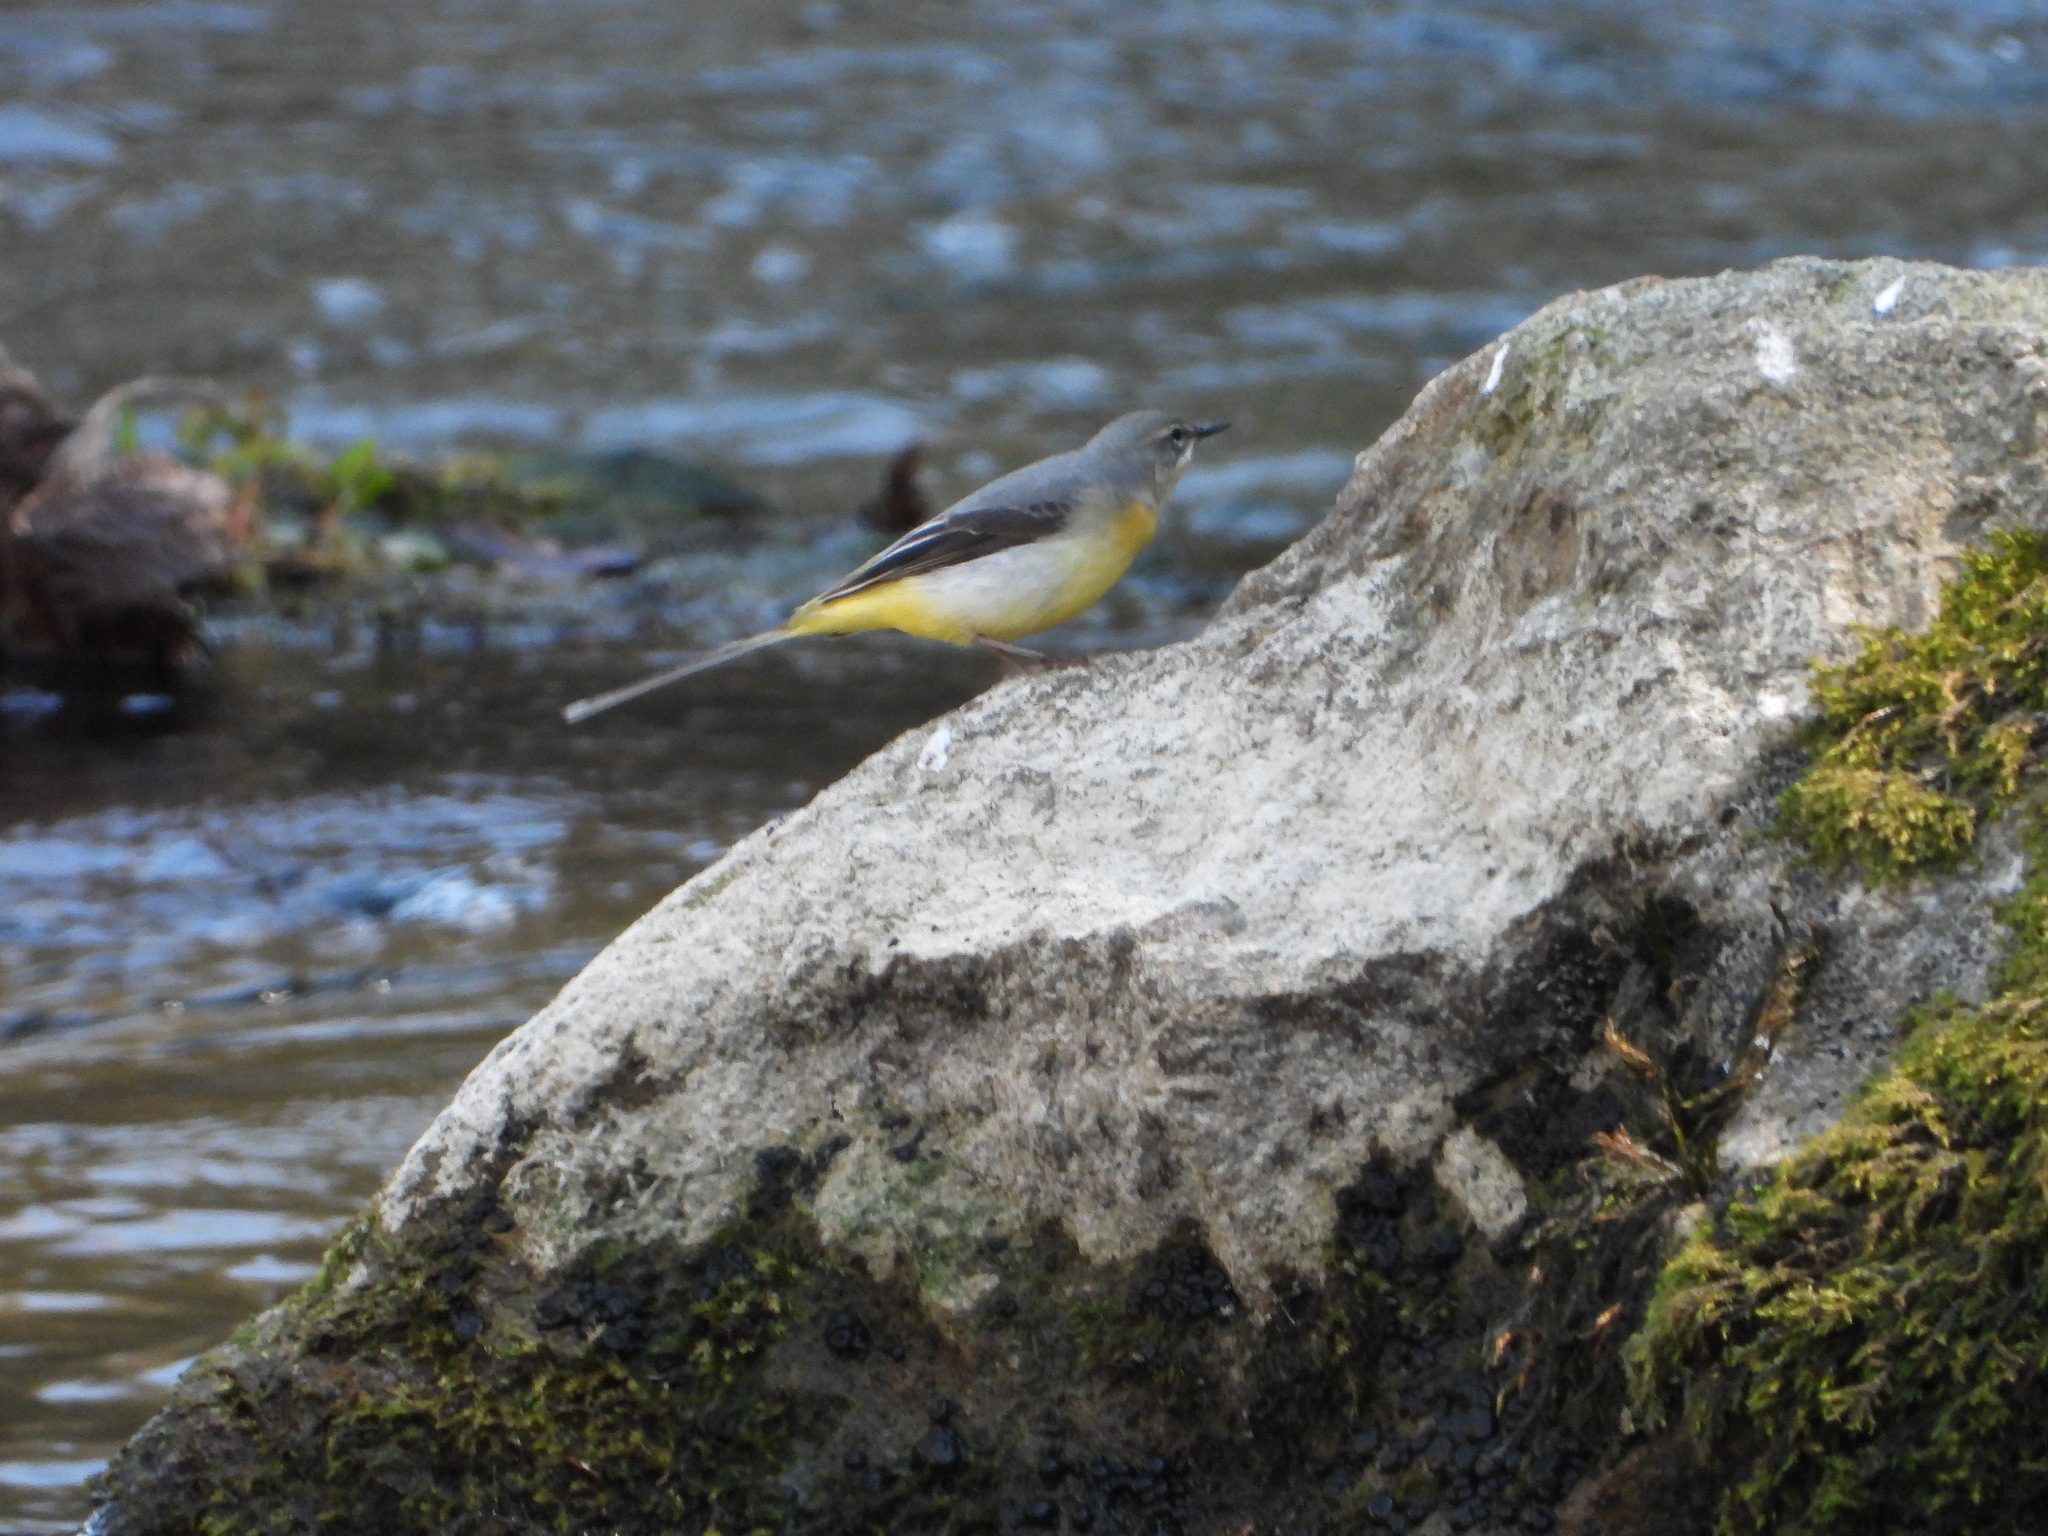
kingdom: Animalia
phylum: Chordata
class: Aves
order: Passeriformes
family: Motacillidae
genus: Motacilla
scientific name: Motacilla cinerea
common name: Grey wagtail
